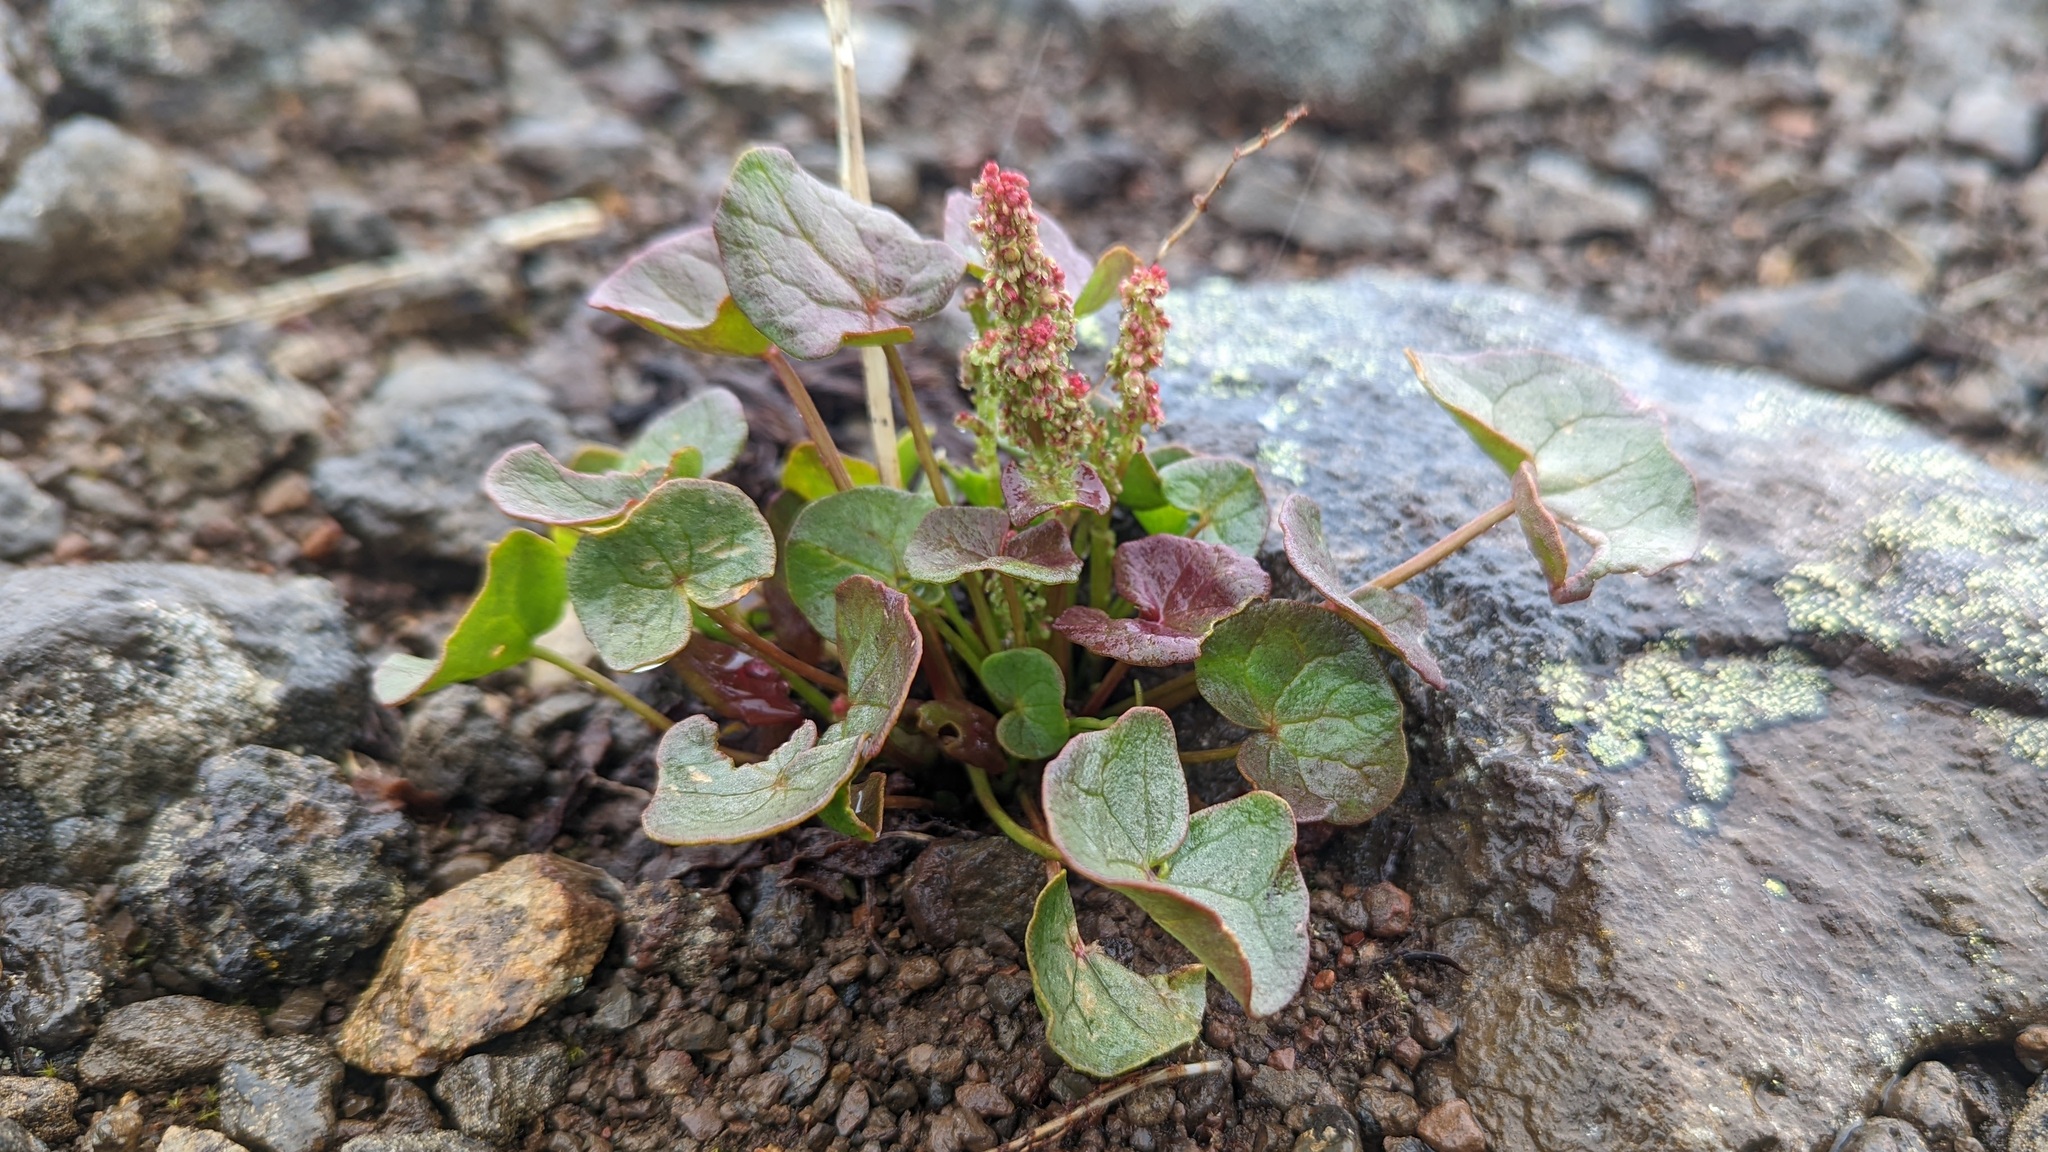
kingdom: Plantae
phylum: Tracheophyta
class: Magnoliopsida
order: Caryophyllales
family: Polygonaceae
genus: Oxyria
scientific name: Oxyria digyna
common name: Alpine mountain-sorrel
